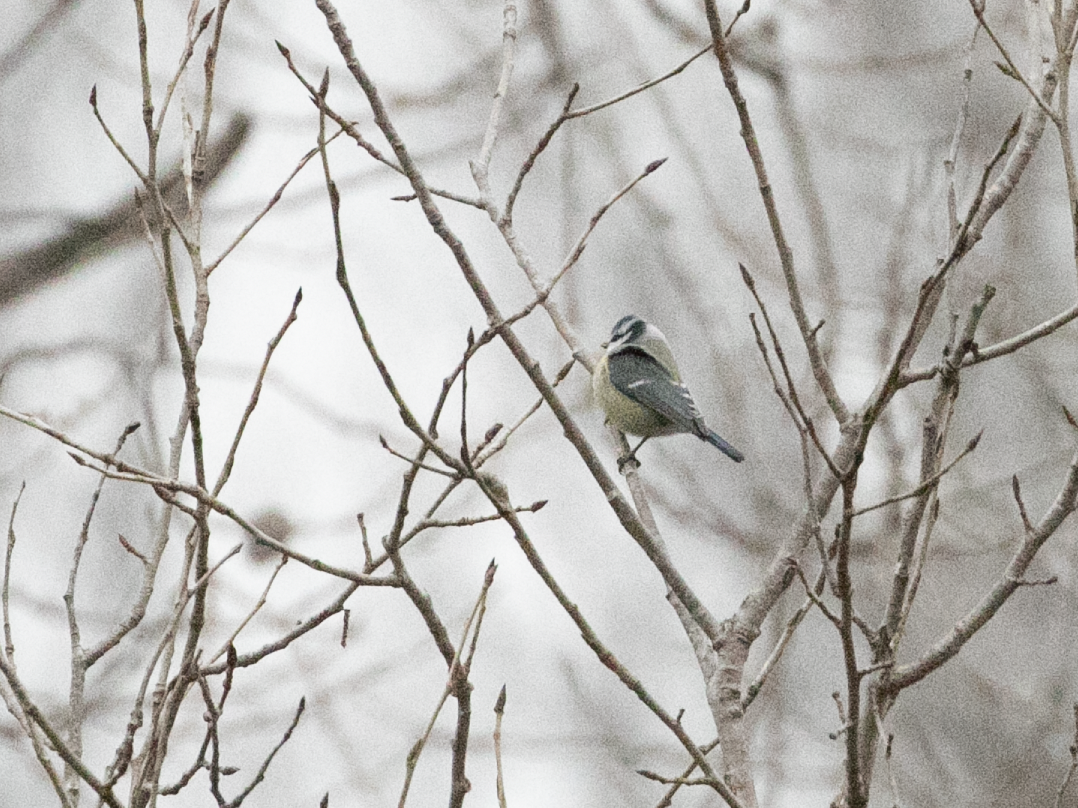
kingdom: Animalia
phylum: Chordata
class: Aves
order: Passeriformes
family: Paridae
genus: Cyanistes
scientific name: Cyanistes caeruleus
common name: Eurasian blue tit
